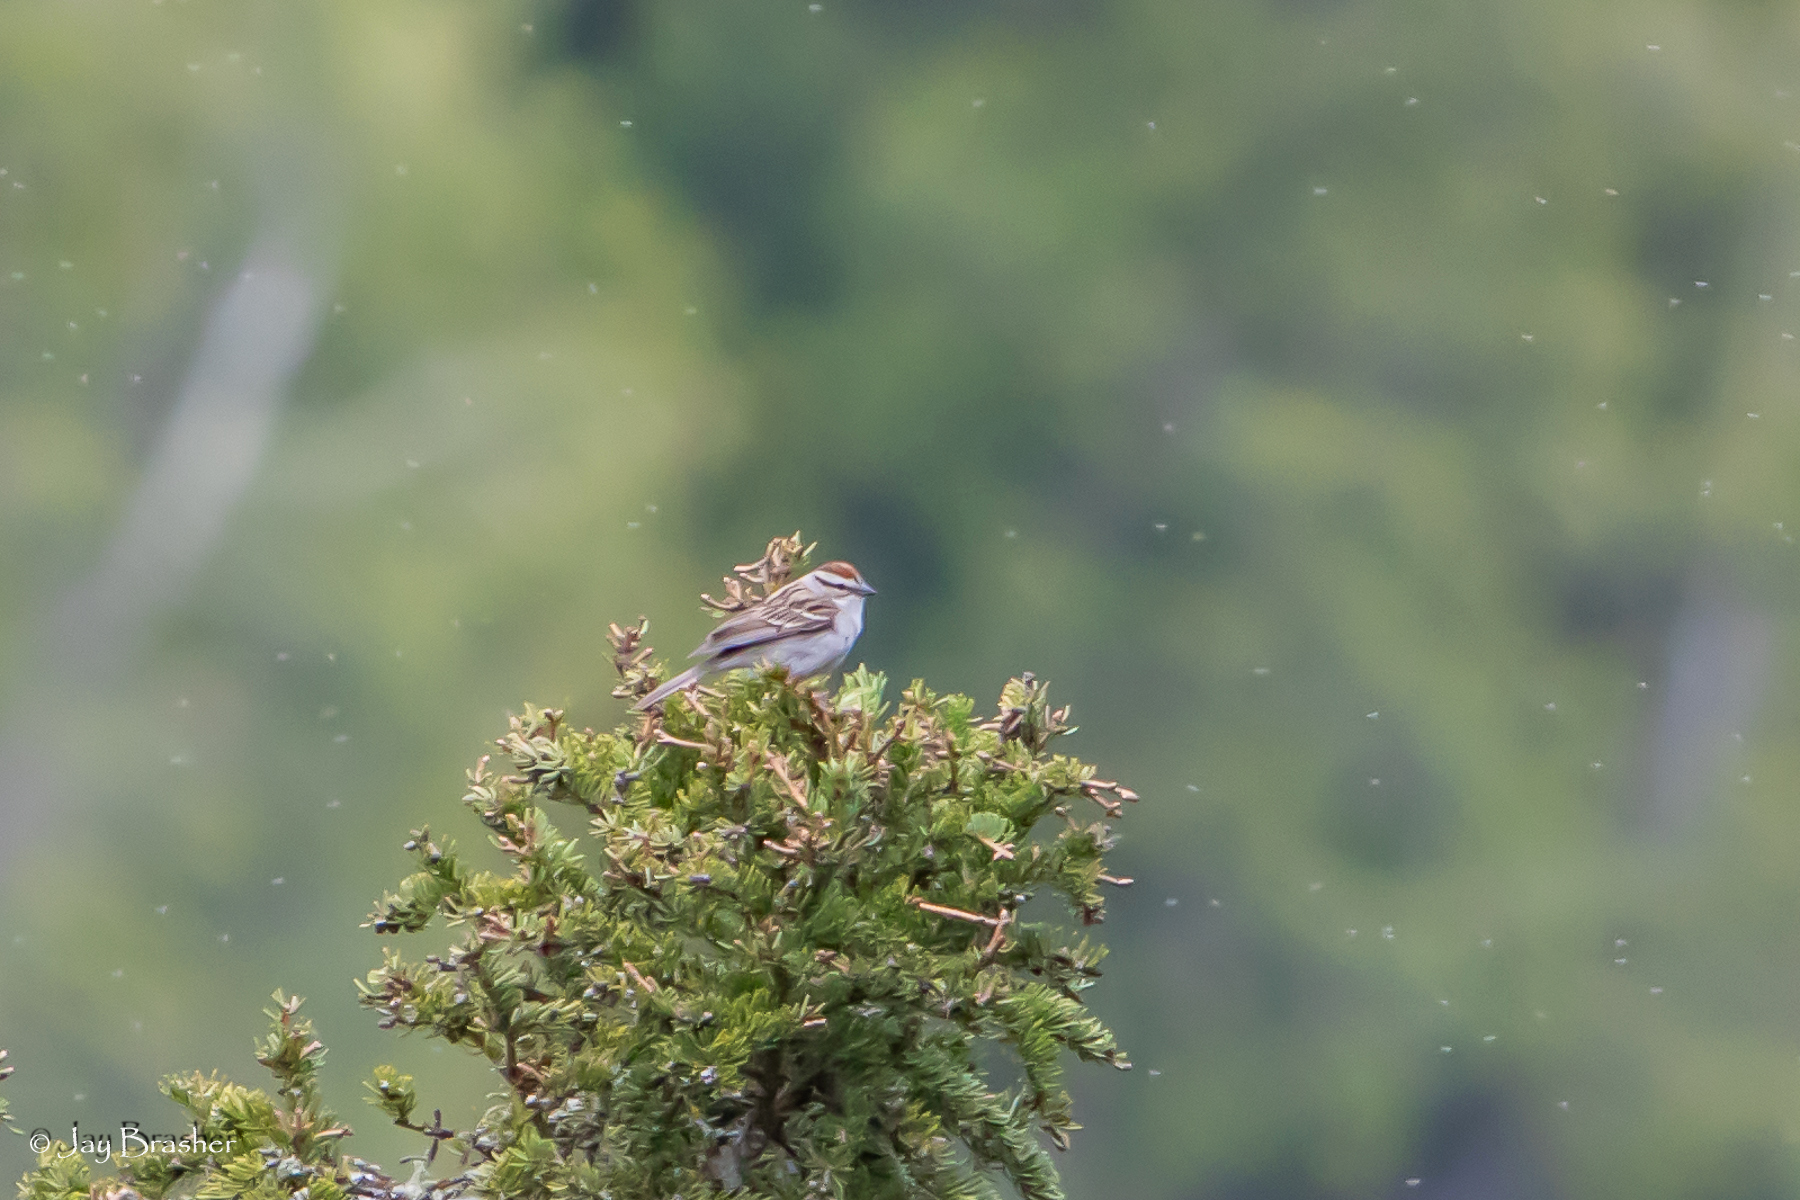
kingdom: Animalia
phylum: Chordata
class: Aves
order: Passeriformes
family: Passerellidae
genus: Spizella
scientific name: Spizella passerina
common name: Chipping sparrow
